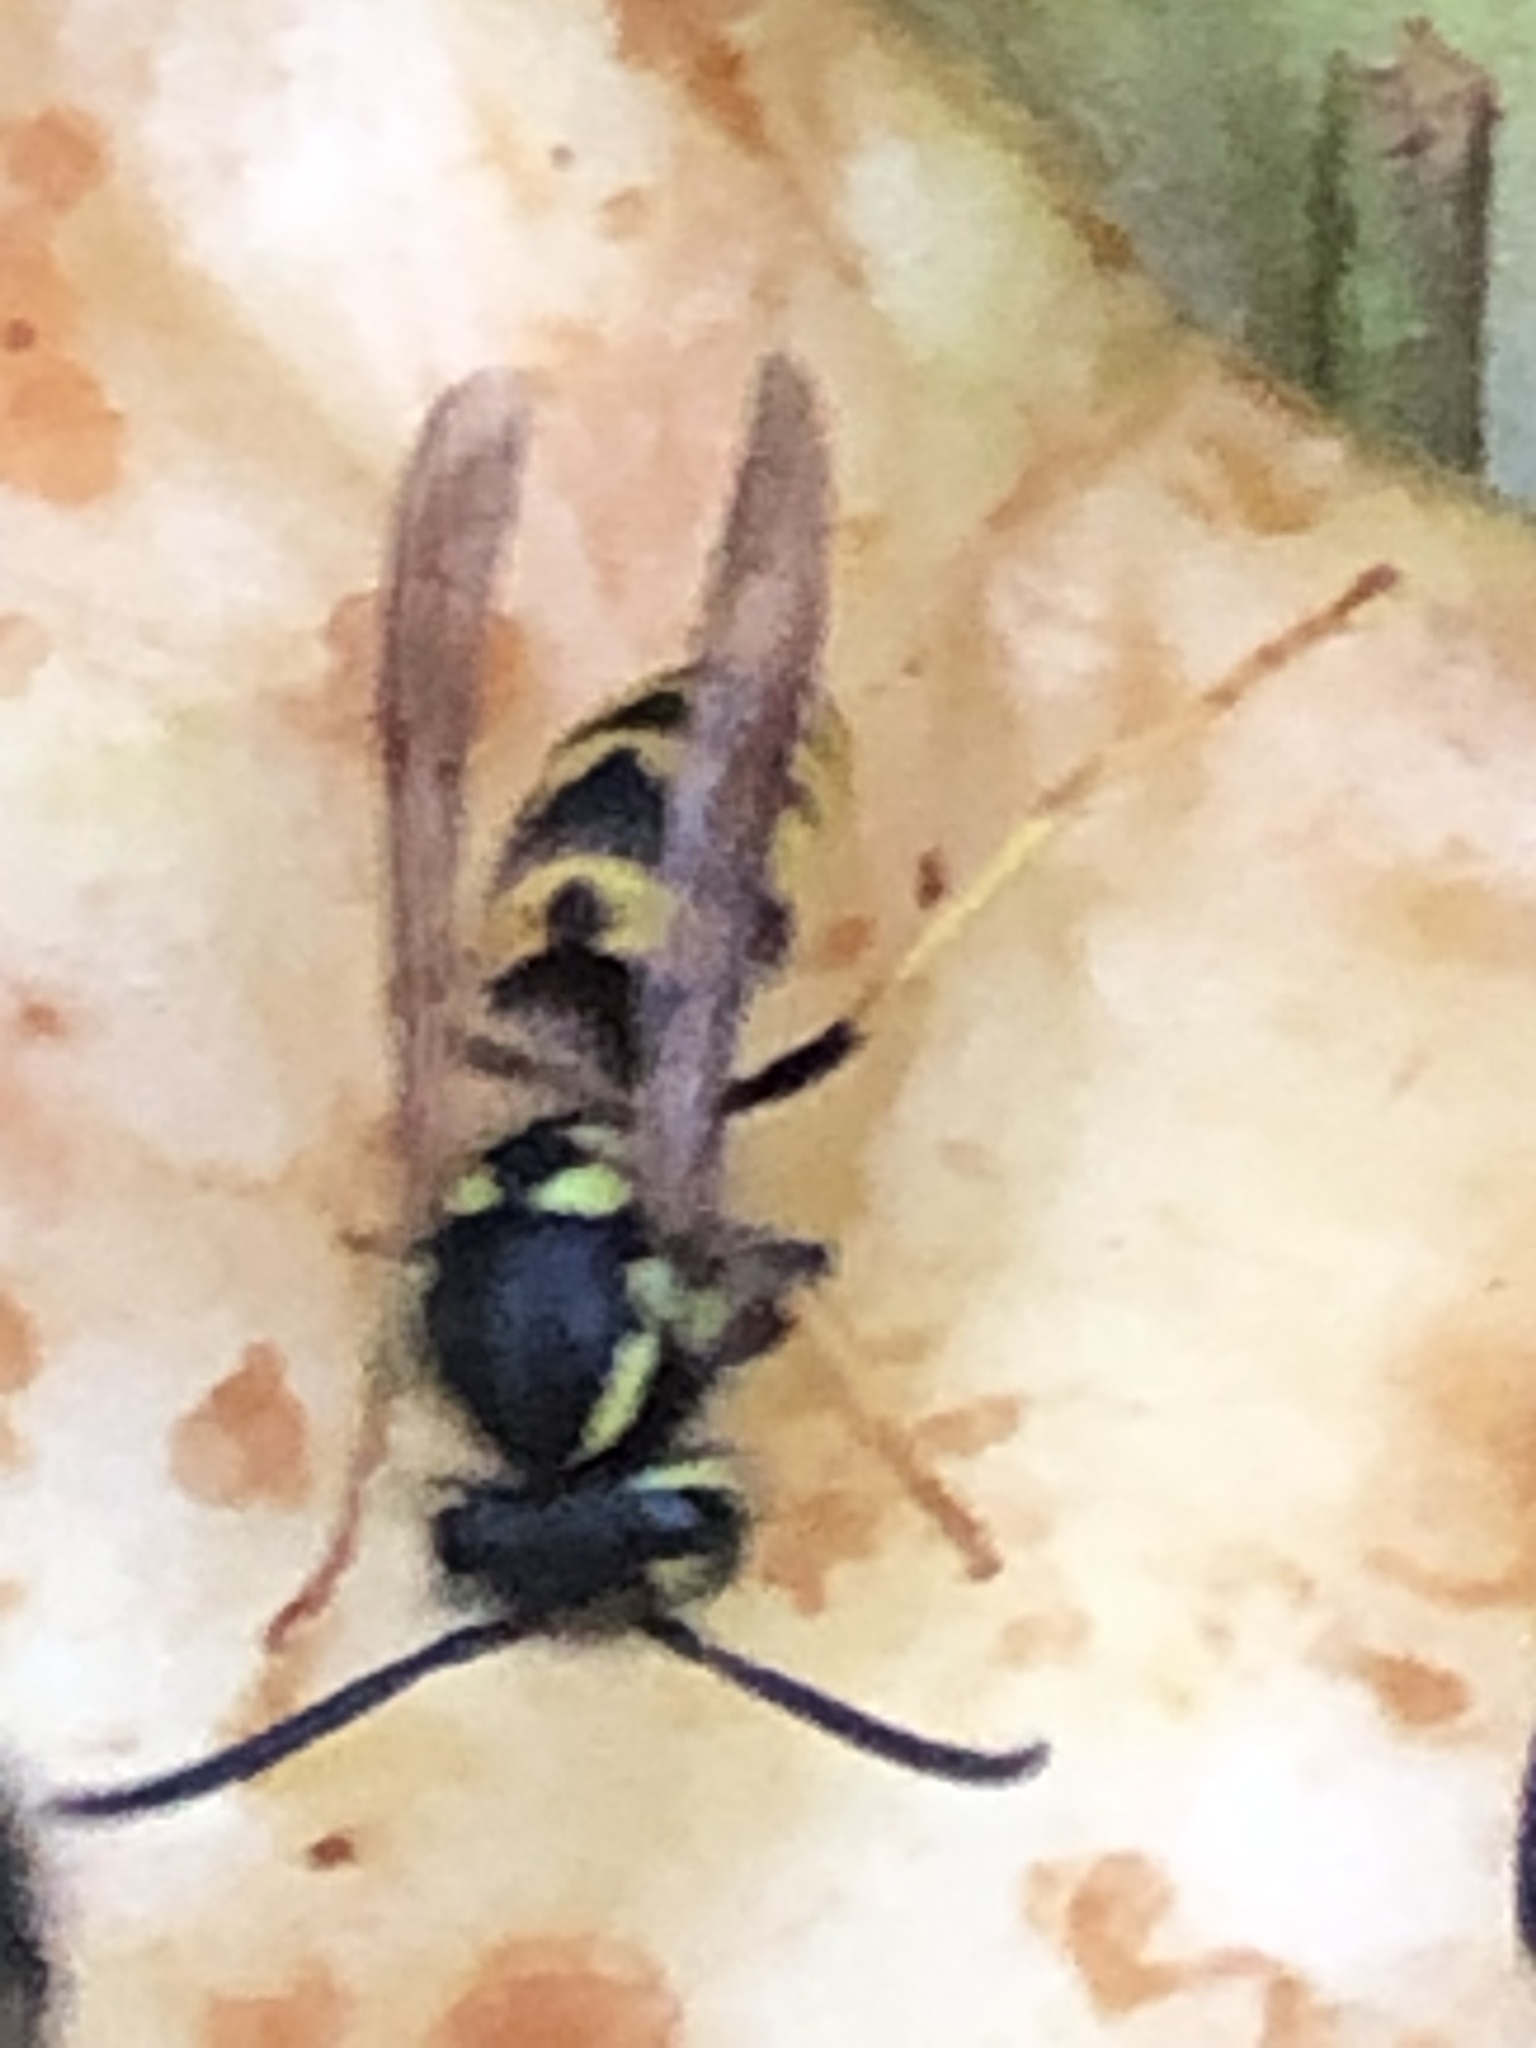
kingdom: Animalia
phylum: Arthropoda
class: Insecta
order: Hymenoptera
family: Vespidae
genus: Vespula
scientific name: Vespula germanica
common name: German wasp
